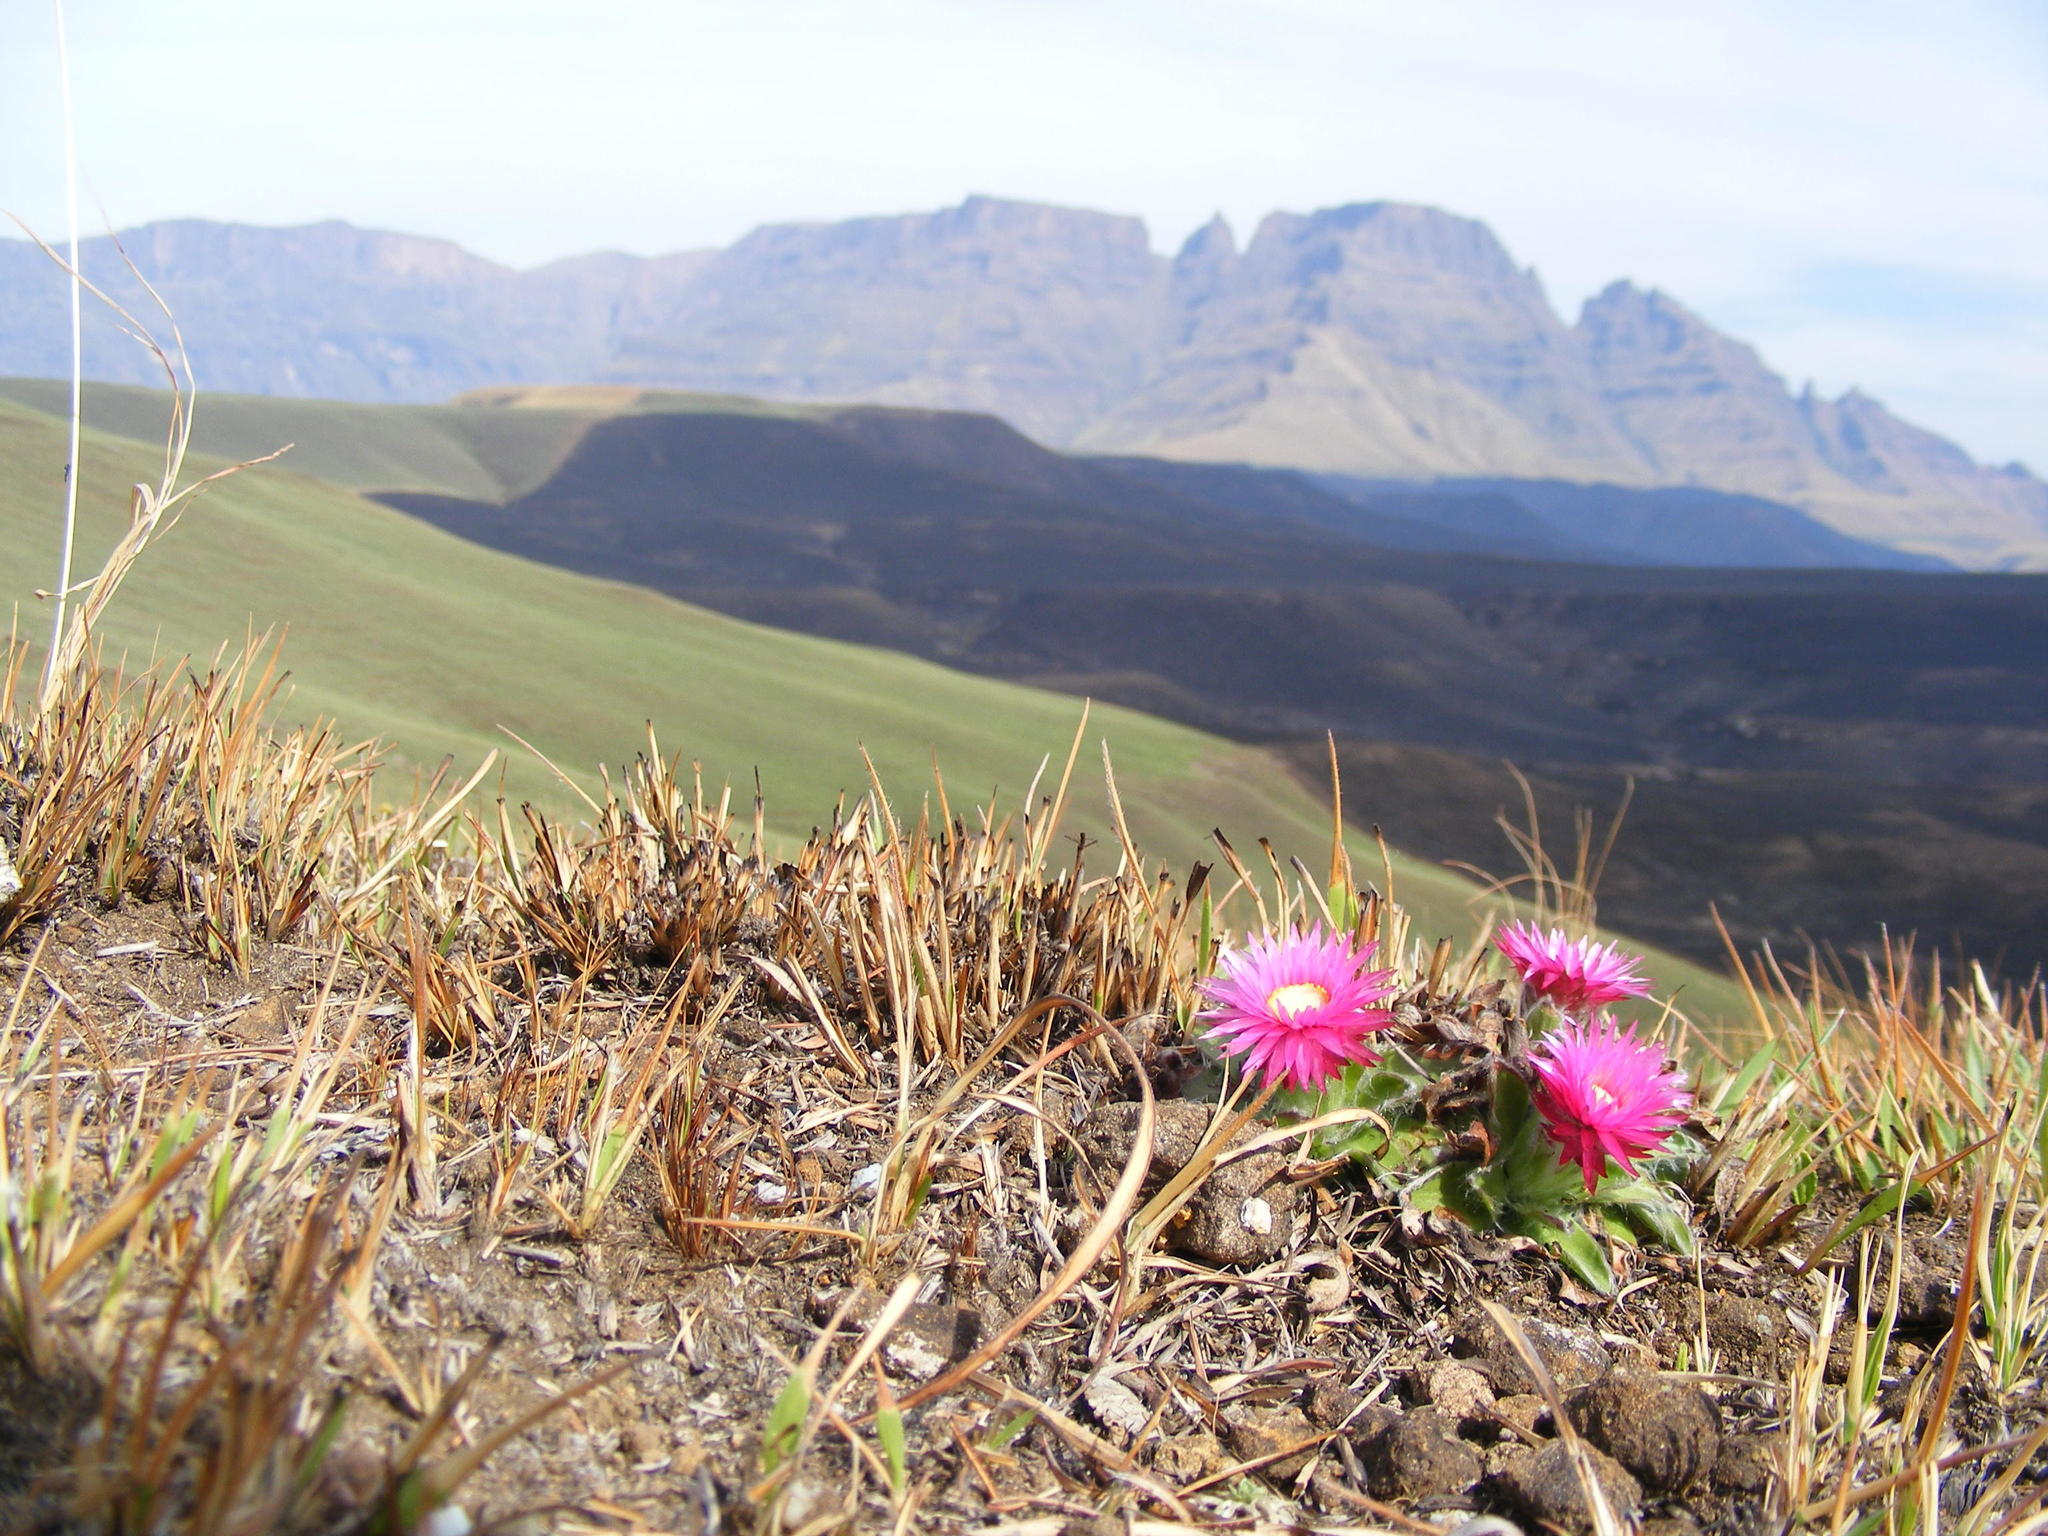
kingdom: Plantae
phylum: Tracheophyta
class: Magnoliopsida
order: Asterales
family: Asteraceae
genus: Helichrysum
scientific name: Helichrysum vernum
